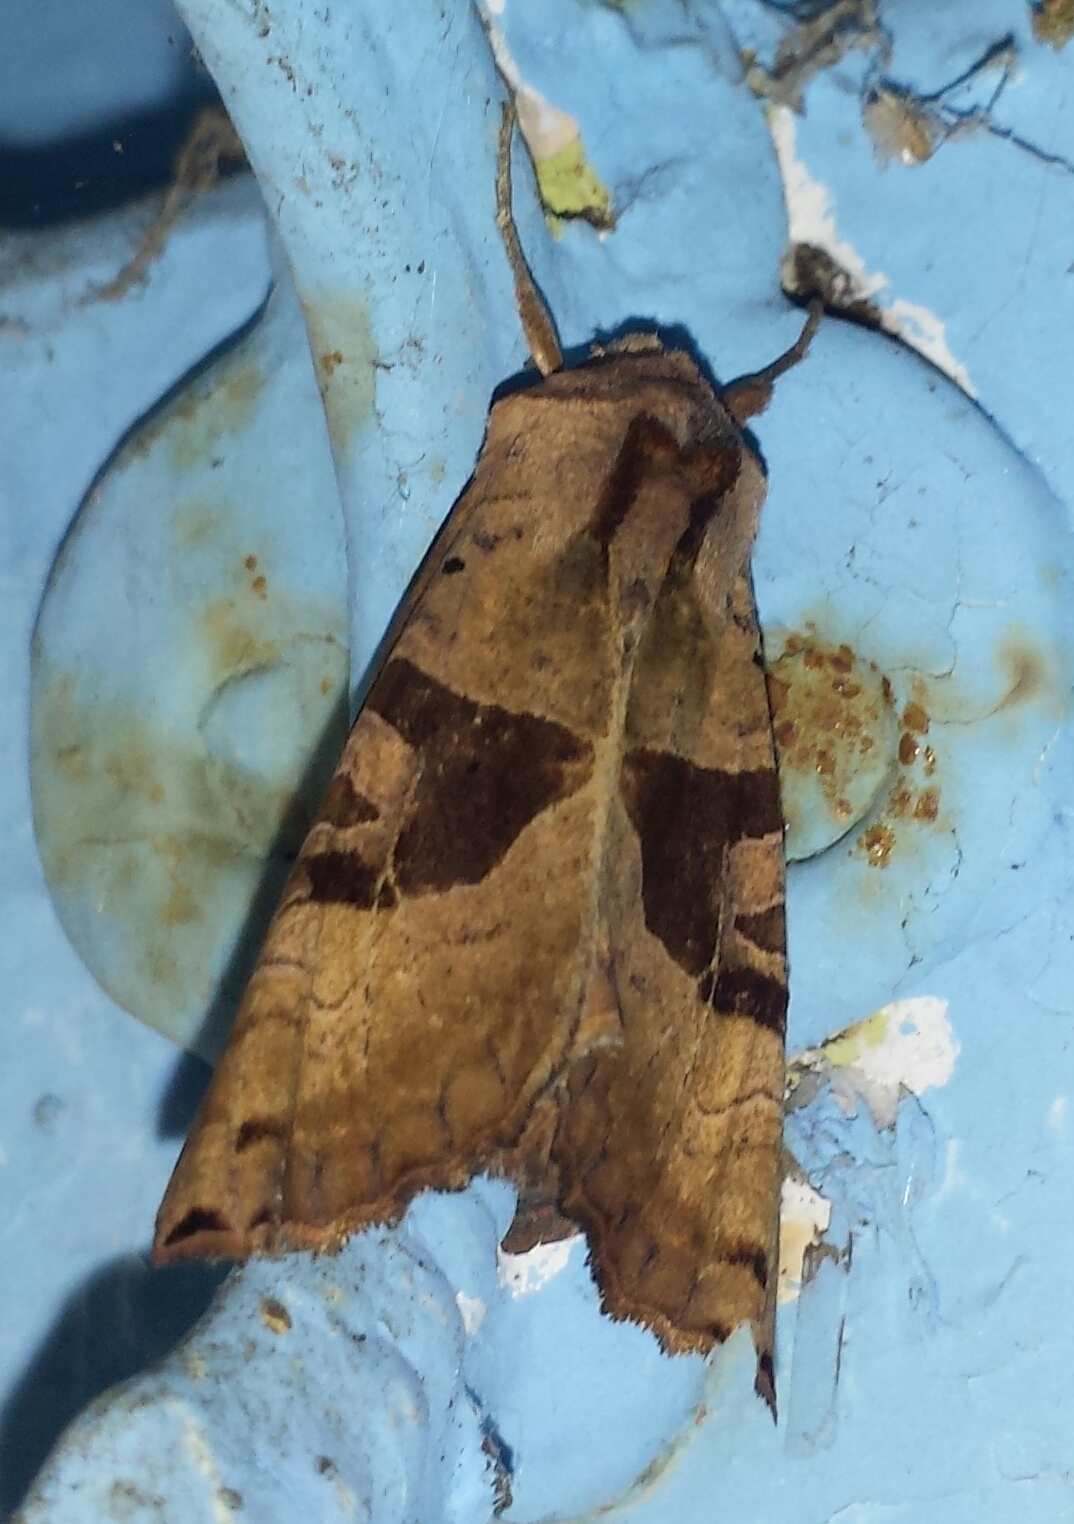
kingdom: Animalia
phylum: Arthropoda
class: Insecta
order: Lepidoptera
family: Noctuidae
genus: Phlogophora
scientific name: Phlogophora periculosa
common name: Brown angle shades
